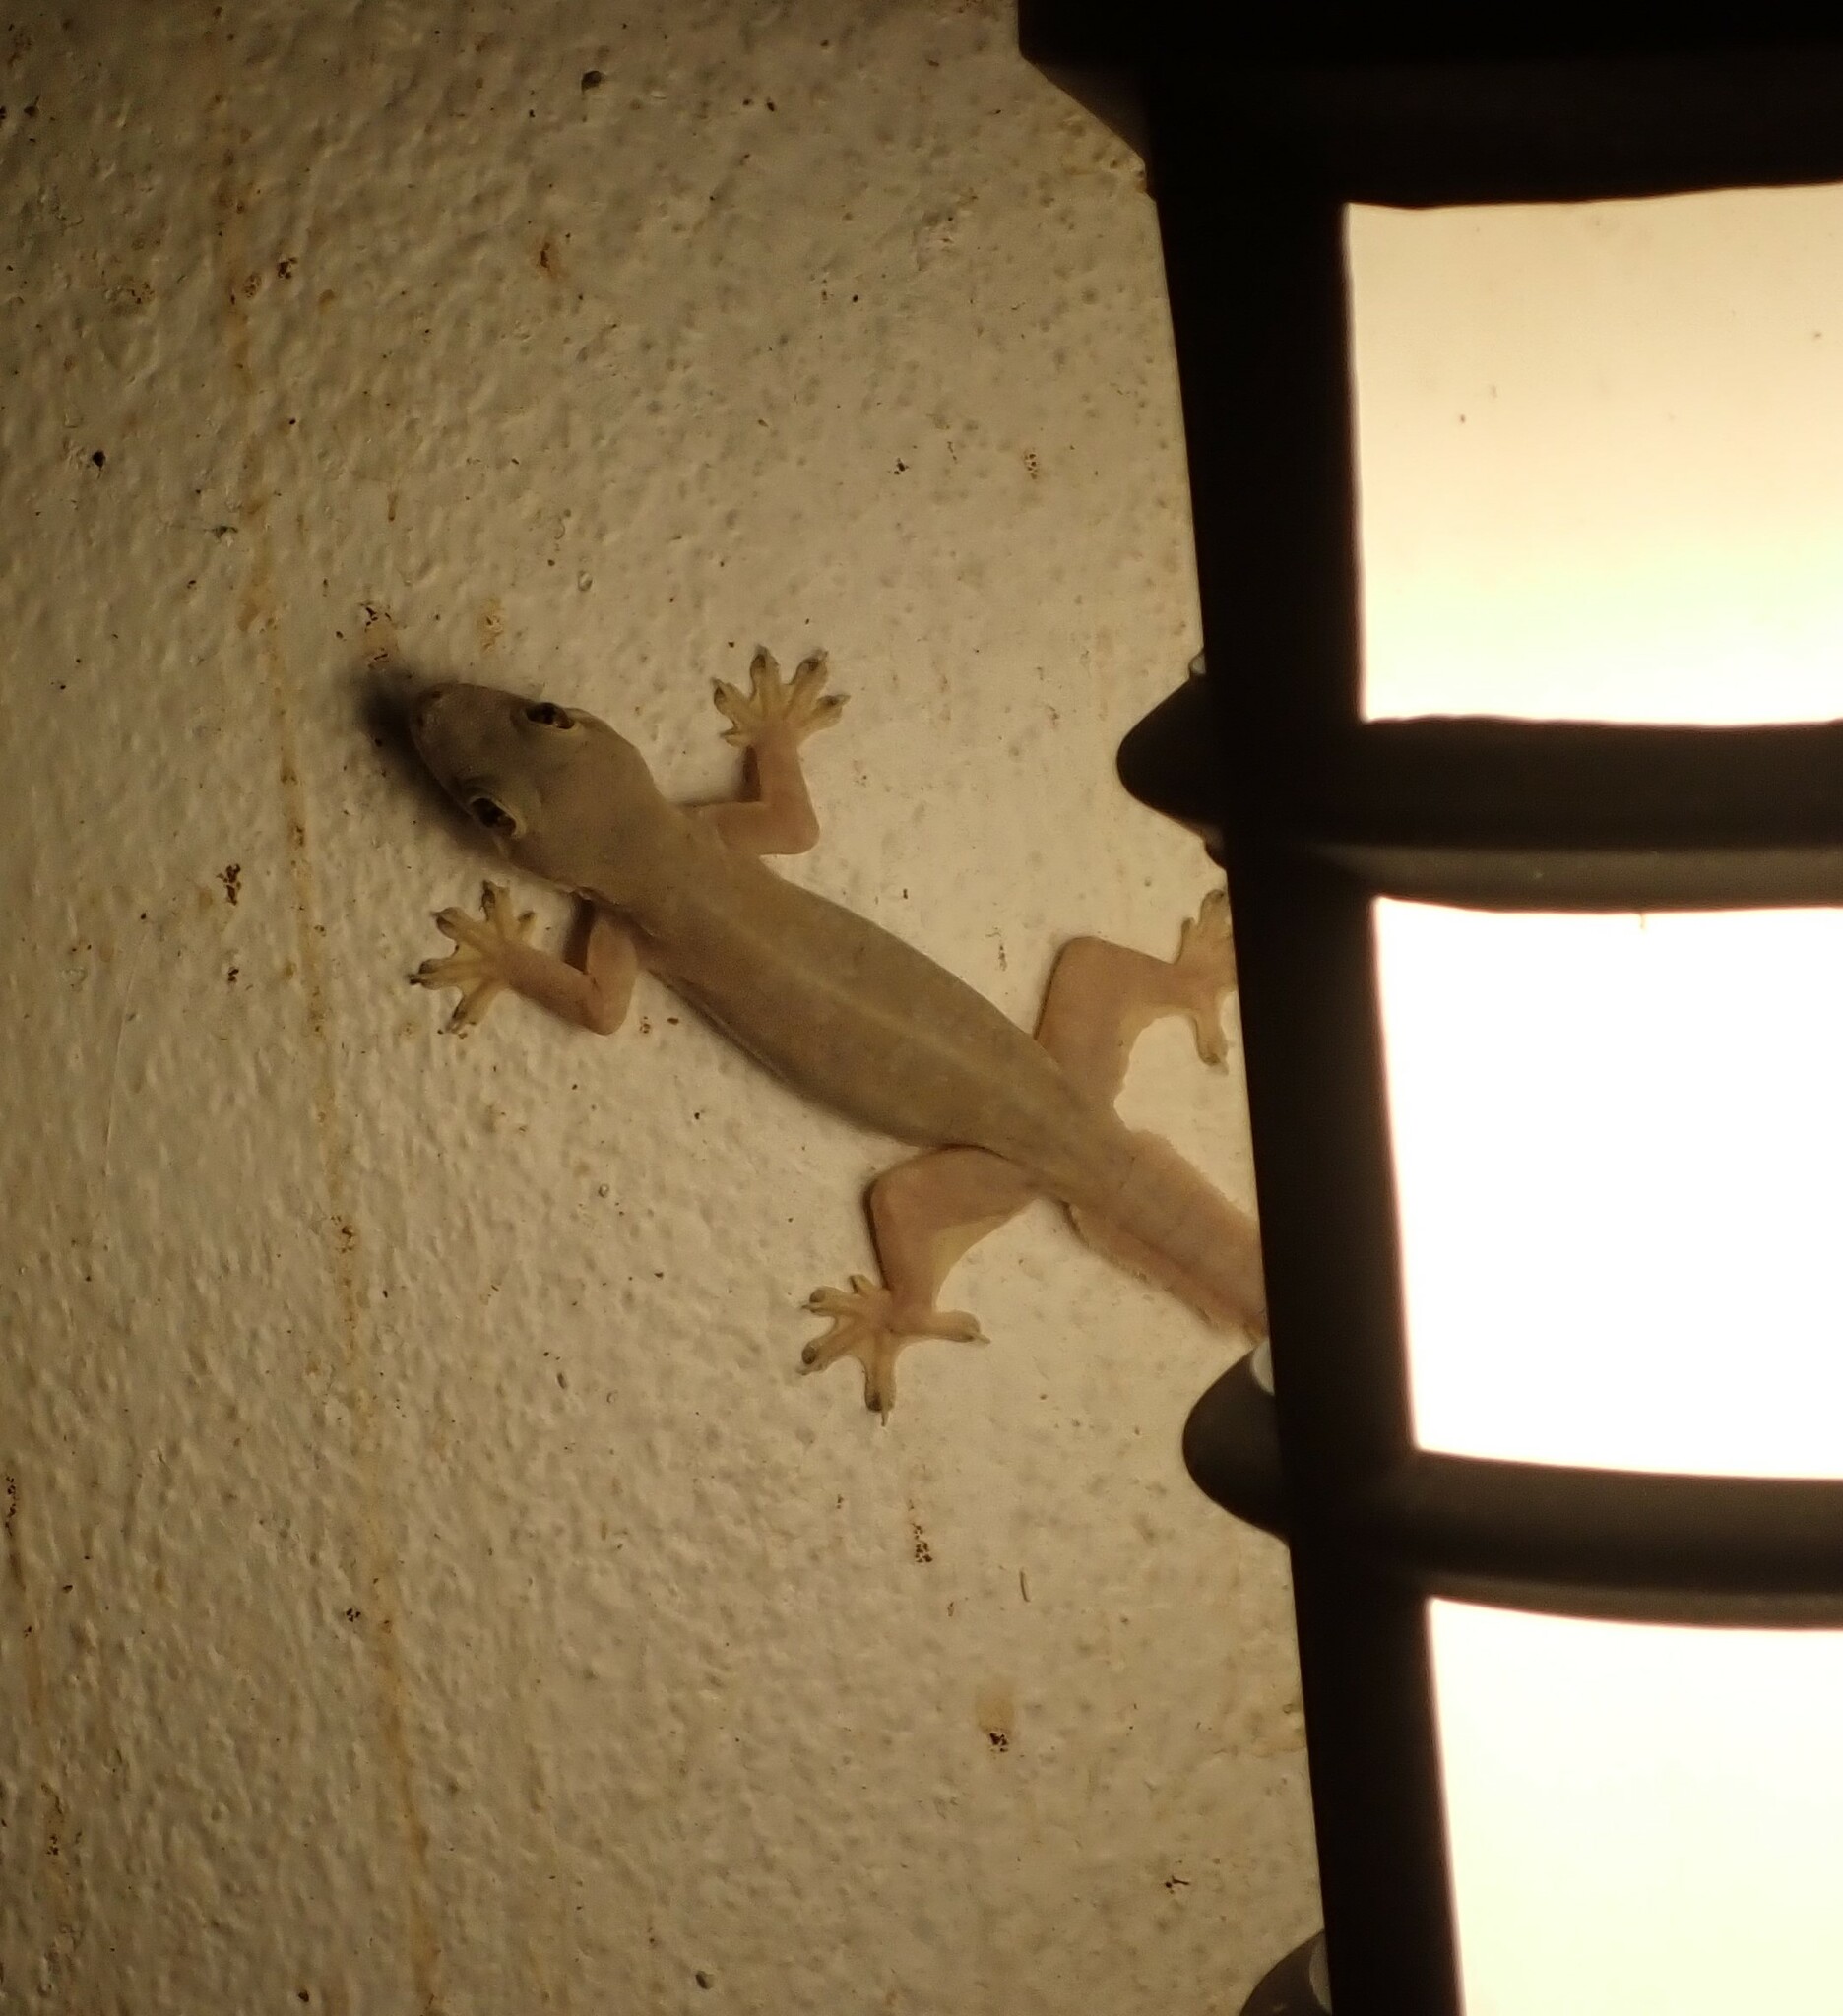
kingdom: Animalia
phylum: Chordata
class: Squamata
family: Gekkonidae
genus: Hemidactylus
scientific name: Hemidactylus platyurus
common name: Flat-tailed house gecko
